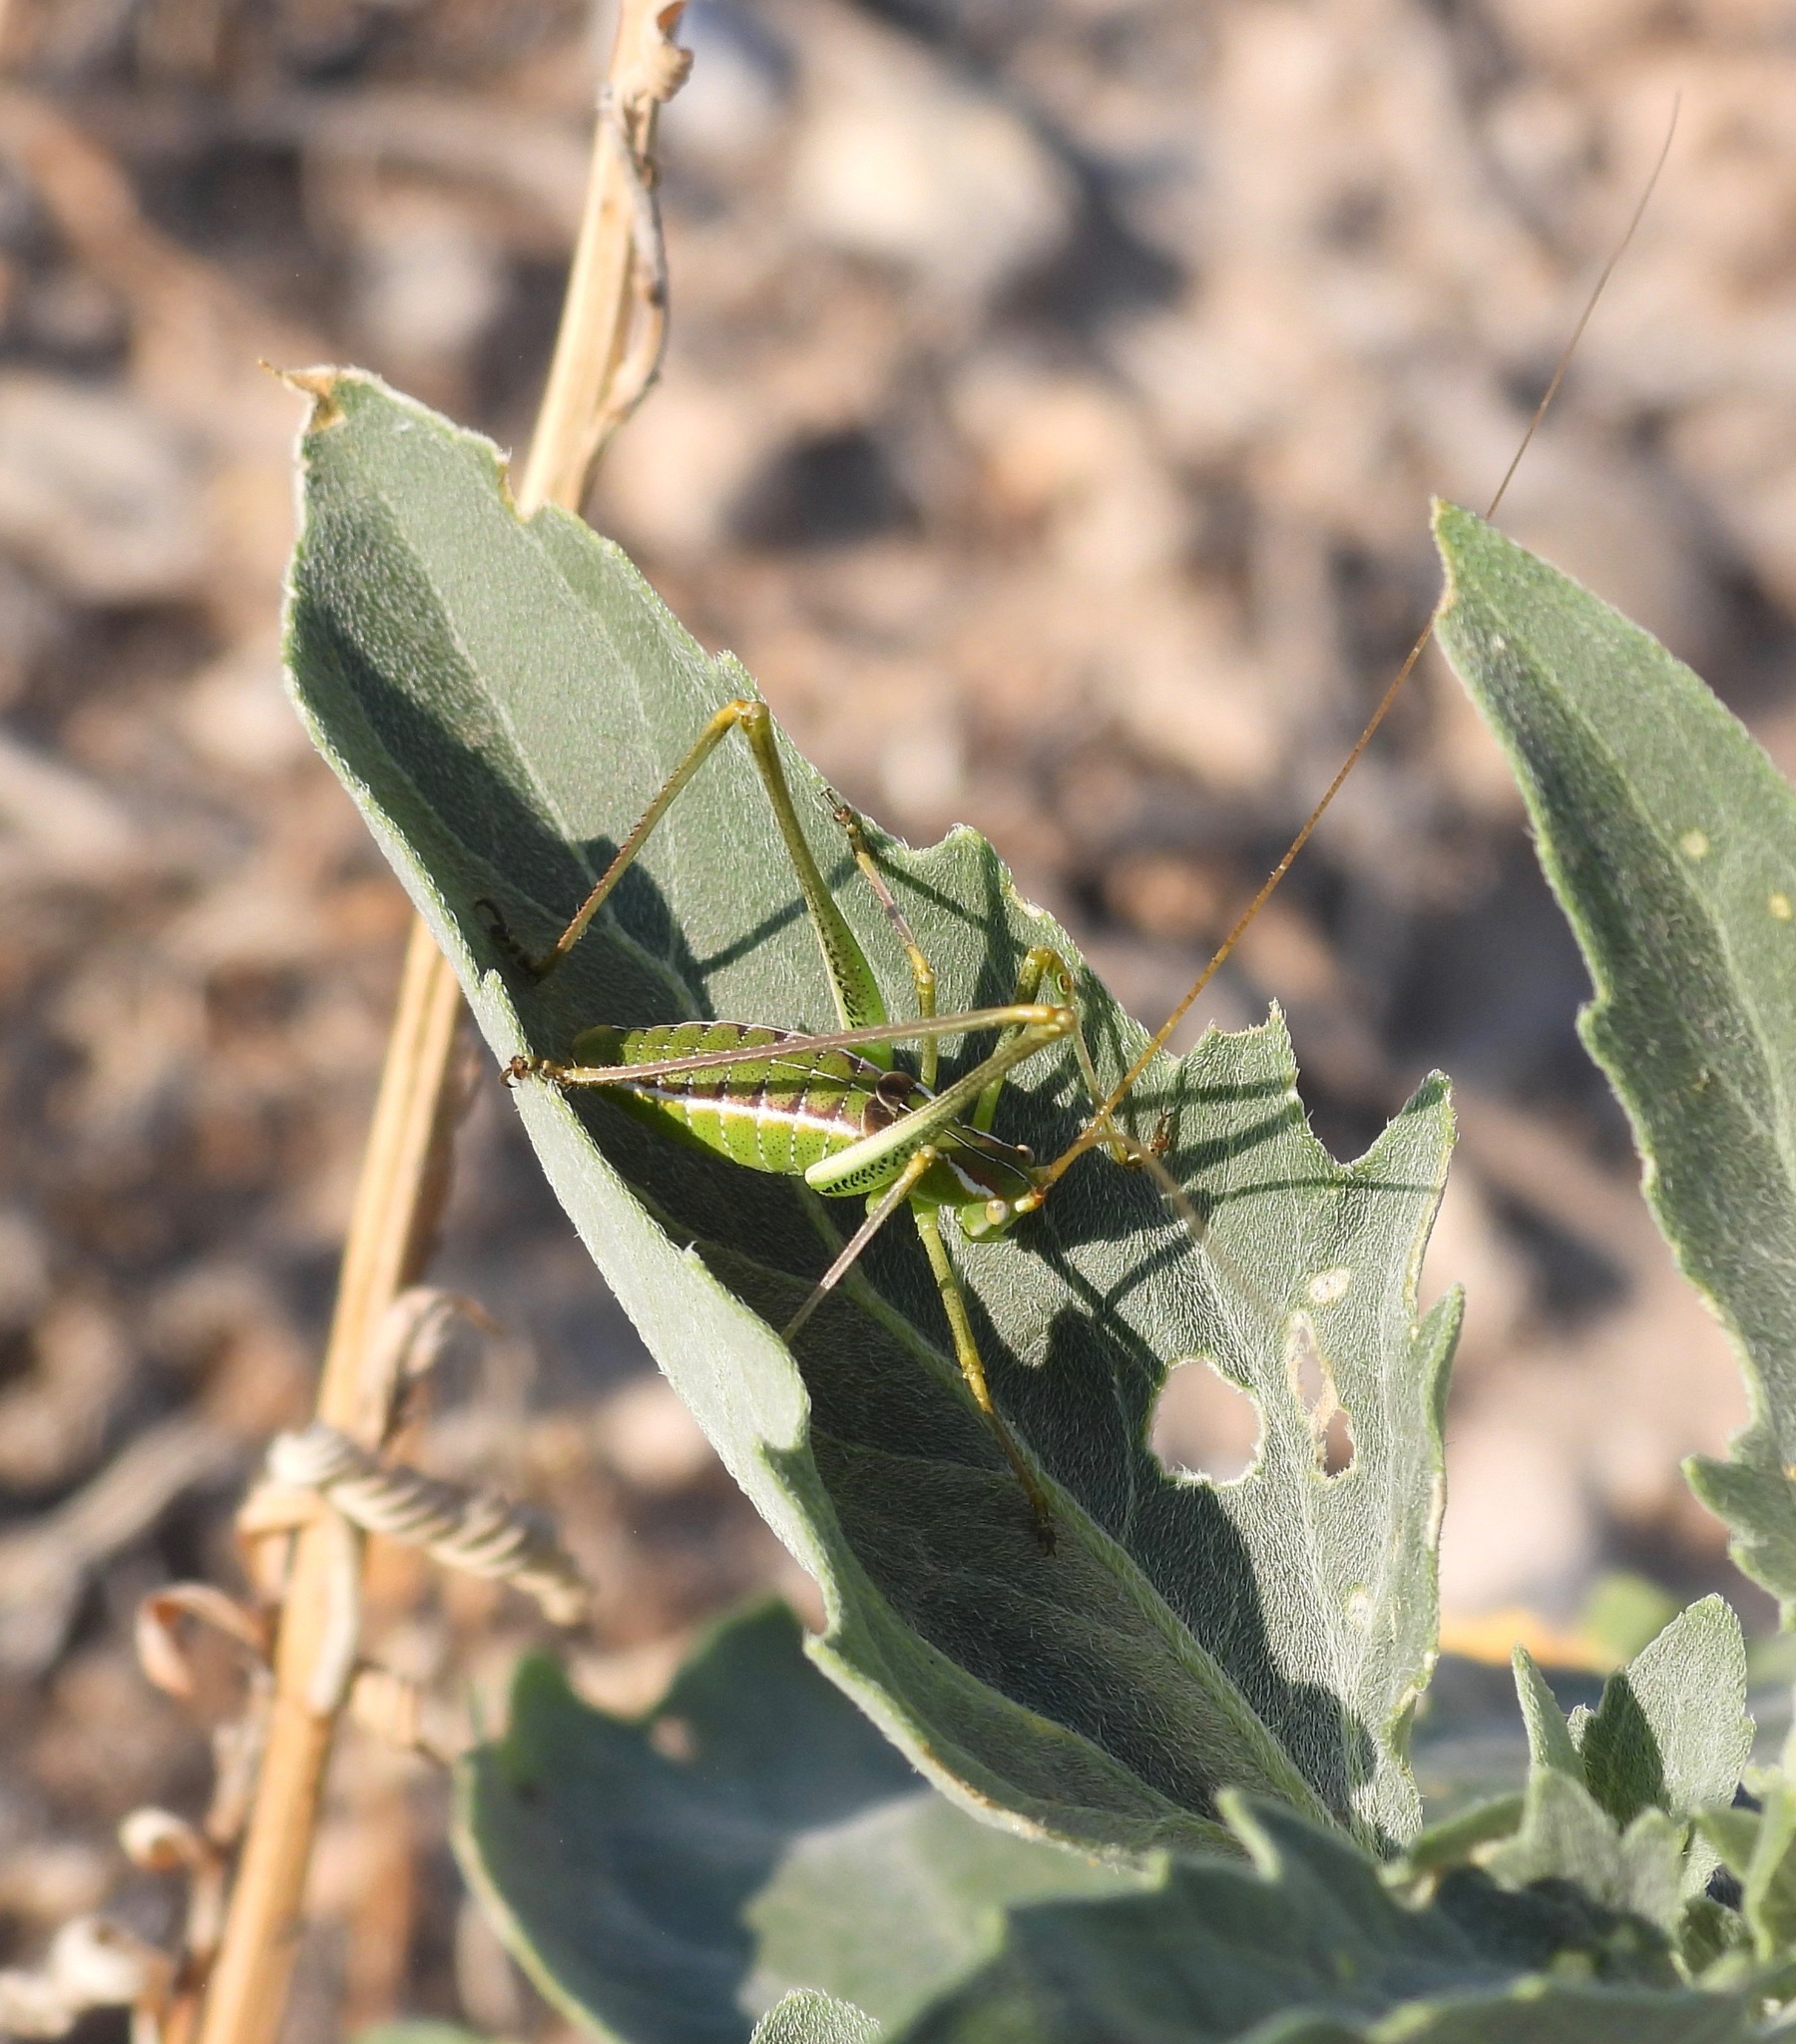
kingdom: Animalia
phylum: Arthropoda
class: Insecta
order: Orthoptera
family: Tettigoniidae
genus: Obolopteryx
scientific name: Obolopteryx brevihastata
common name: Common short-winged katydid
